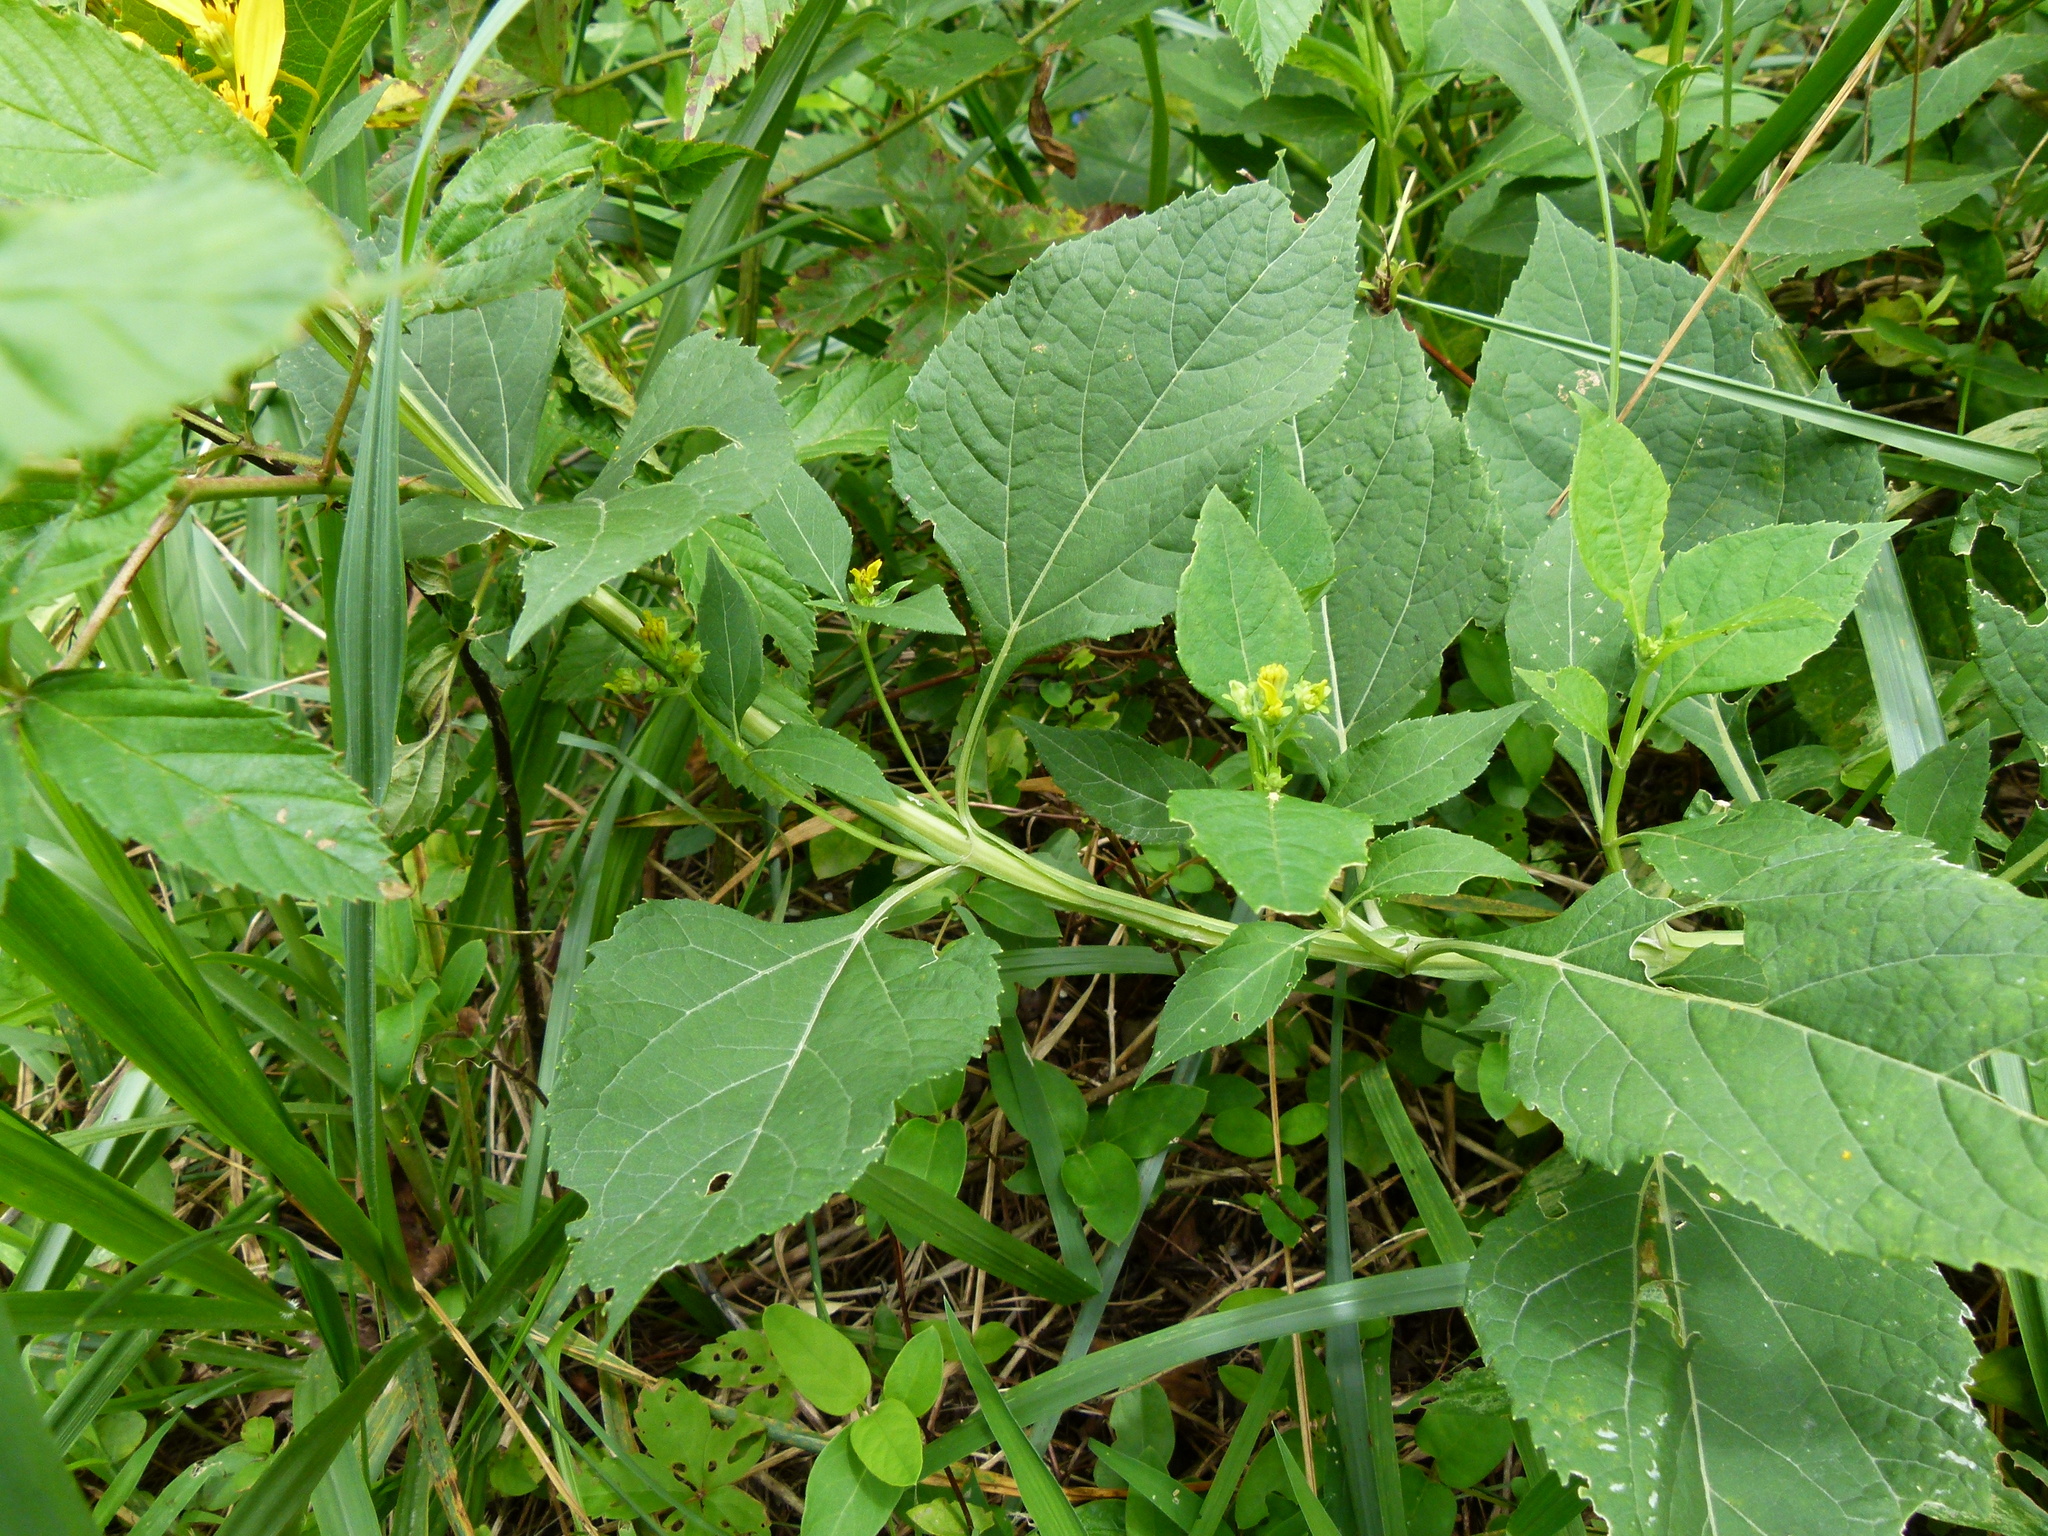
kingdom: Plantae
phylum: Tracheophyta
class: Magnoliopsida
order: Asterales
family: Asteraceae
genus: Verbesina
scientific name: Verbesina occidentalis
